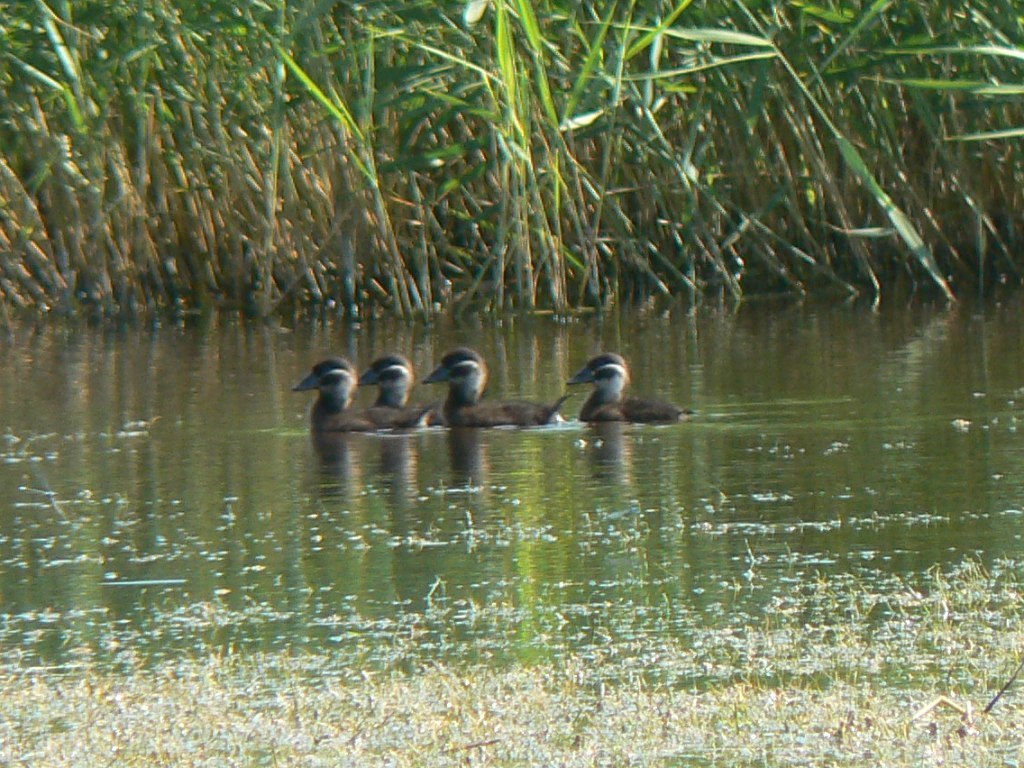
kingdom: Animalia
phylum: Chordata
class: Aves
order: Anseriformes
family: Anatidae
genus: Oxyura
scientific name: Oxyura leucocephala
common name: White-headed duck
